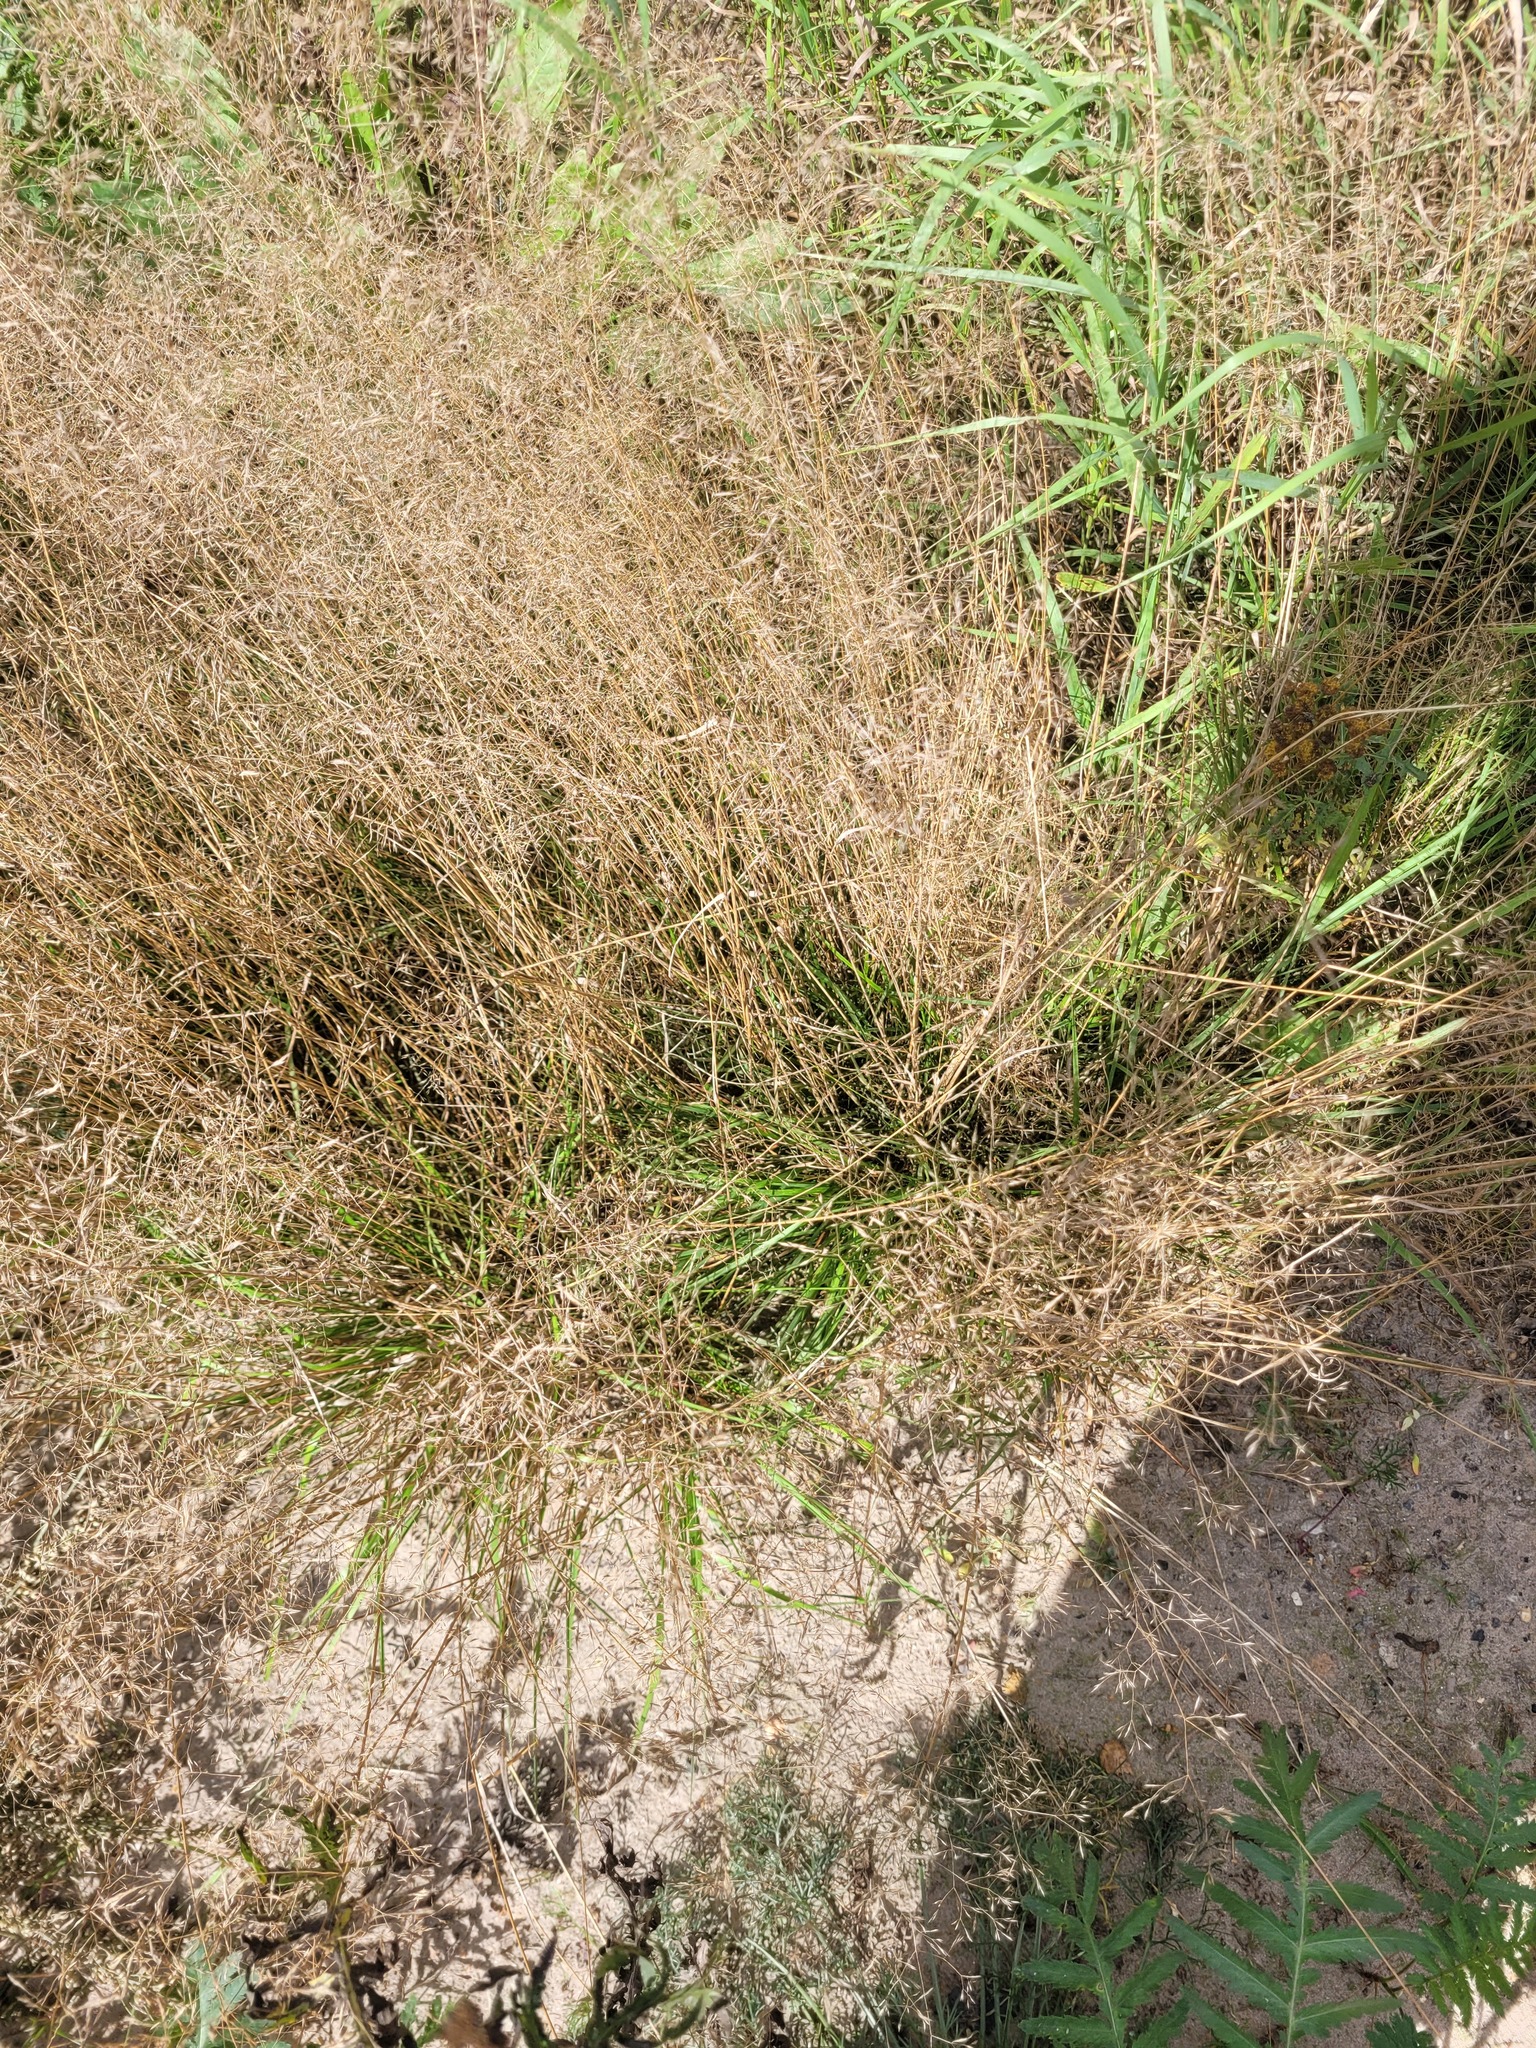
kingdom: Plantae
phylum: Tracheophyta
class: Liliopsida
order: Poales
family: Poaceae
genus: Agrostis
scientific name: Agrostis gigantea
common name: Black bent
